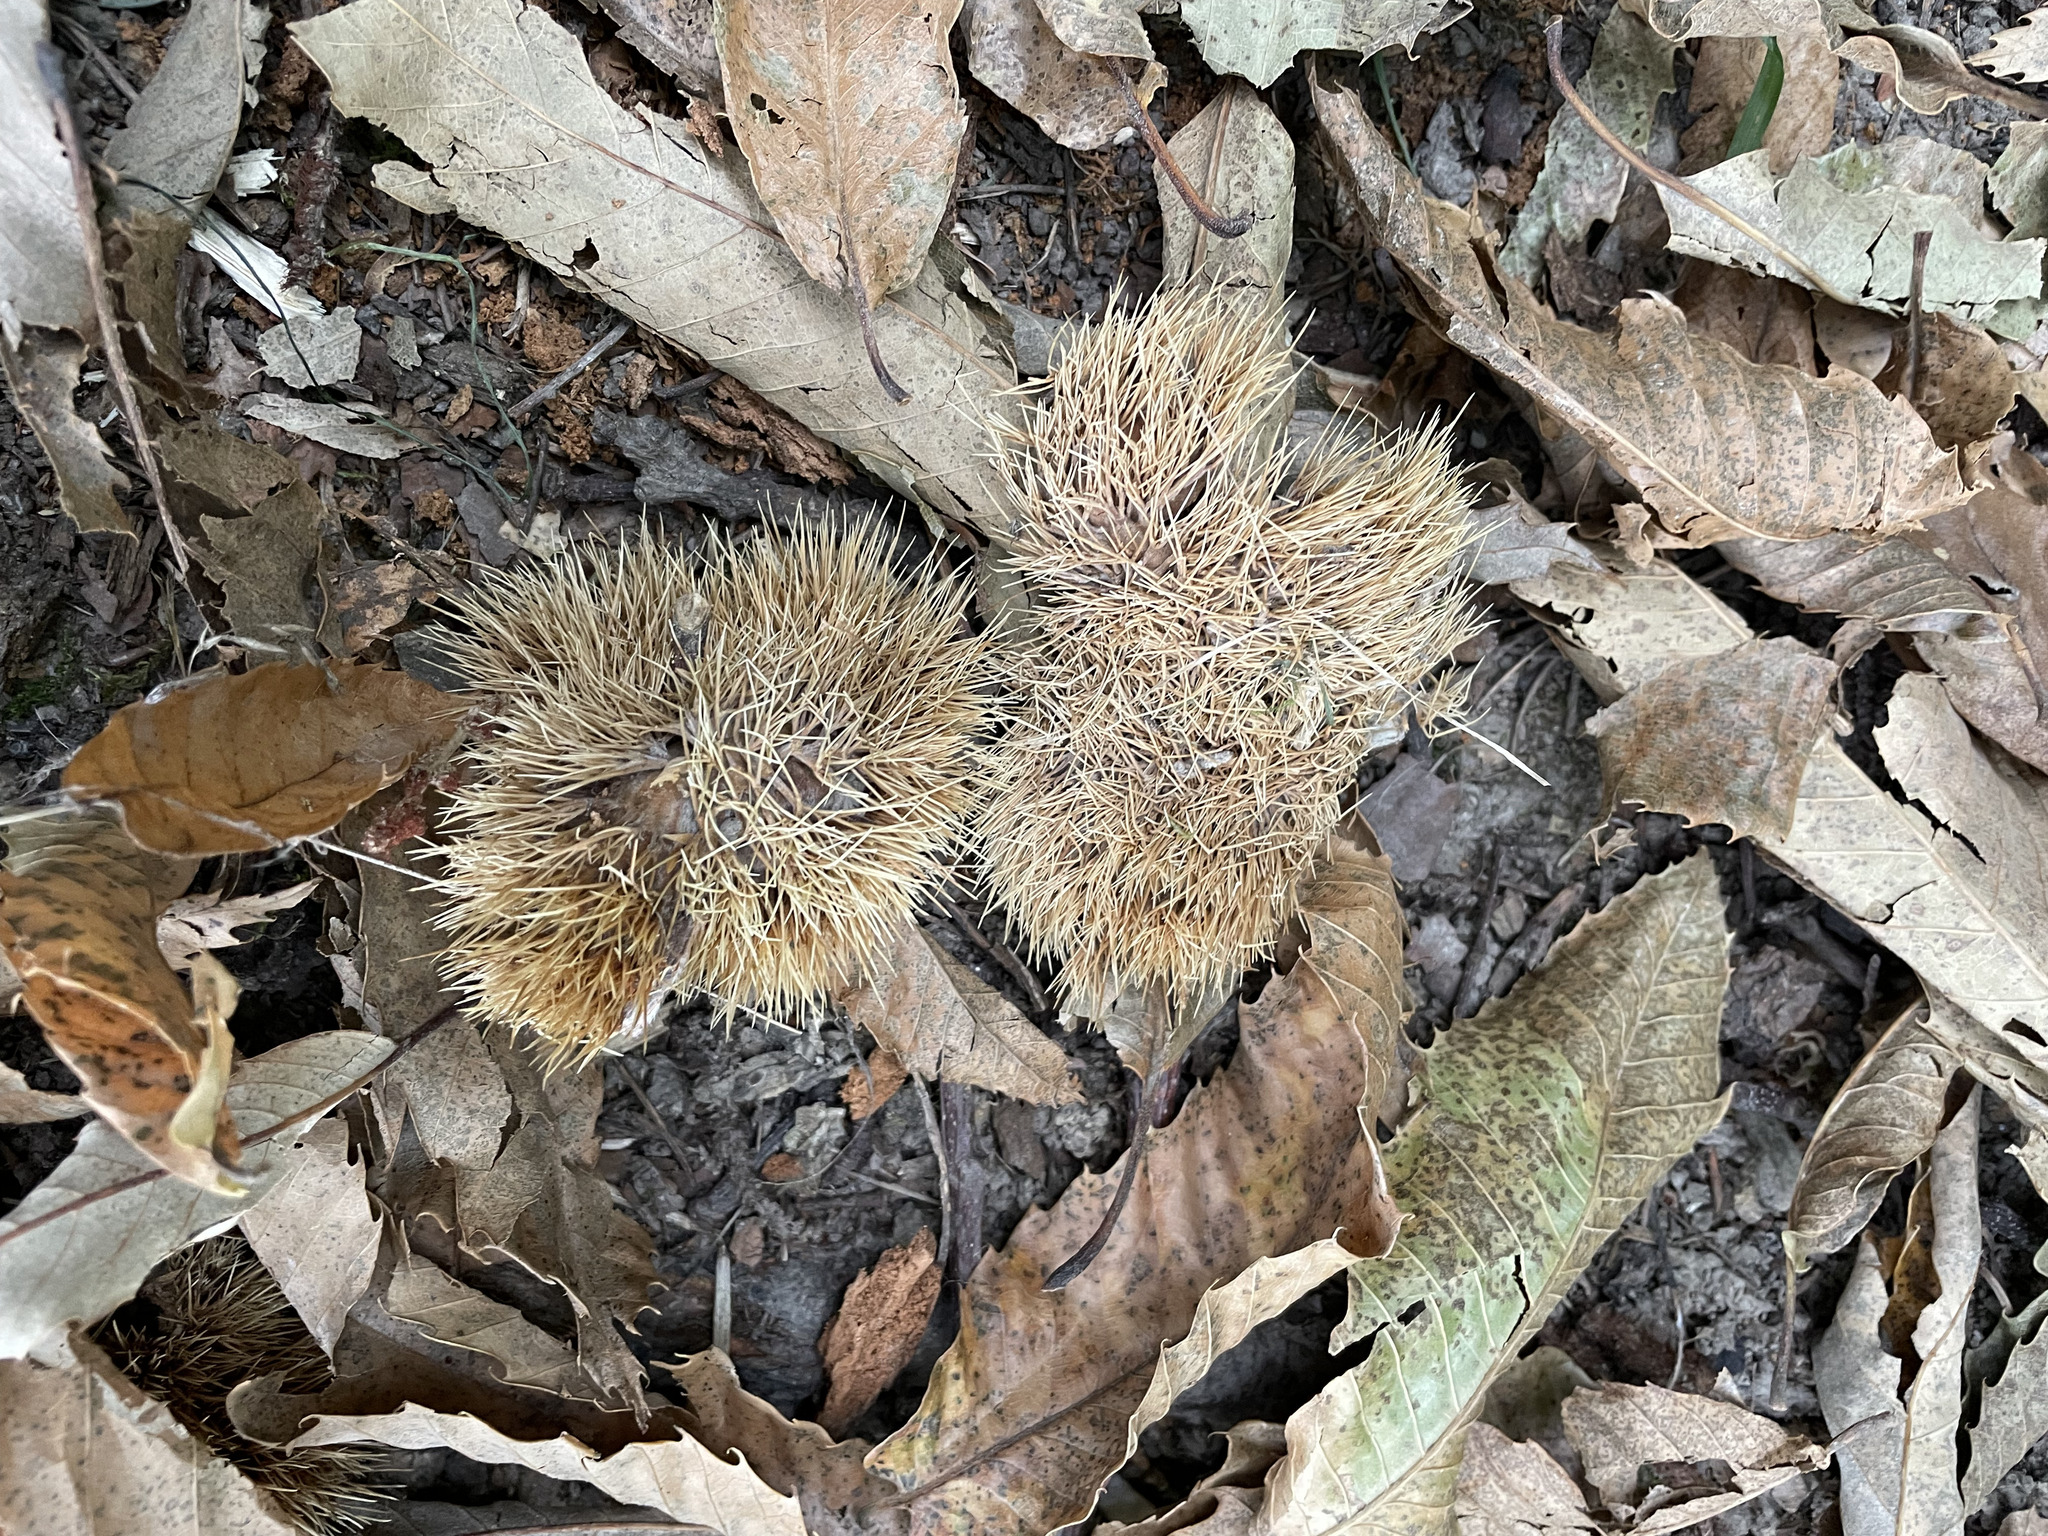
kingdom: Plantae
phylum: Tracheophyta
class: Magnoliopsida
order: Fagales
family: Fagaceae
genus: Castanea
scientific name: Castanea sativa
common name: Sweet chestnut
